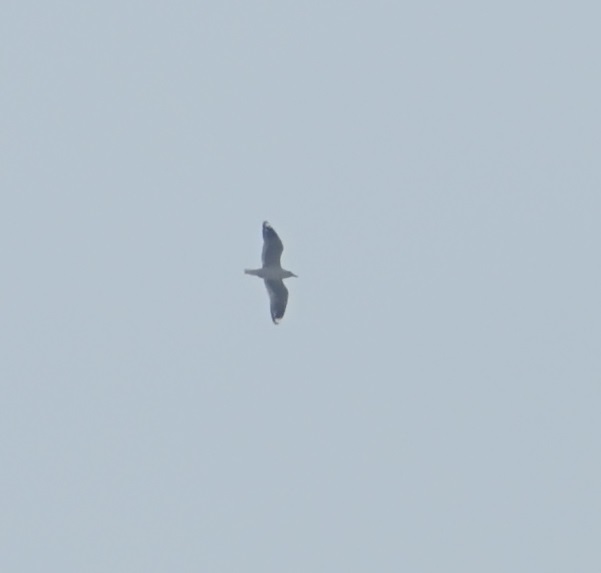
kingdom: Animalia
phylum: Chordata
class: Aves
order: Charadriiformes
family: Laridae
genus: Chroicocephalus
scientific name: Chroicocephalus novaehollandiae
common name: Silver gull
